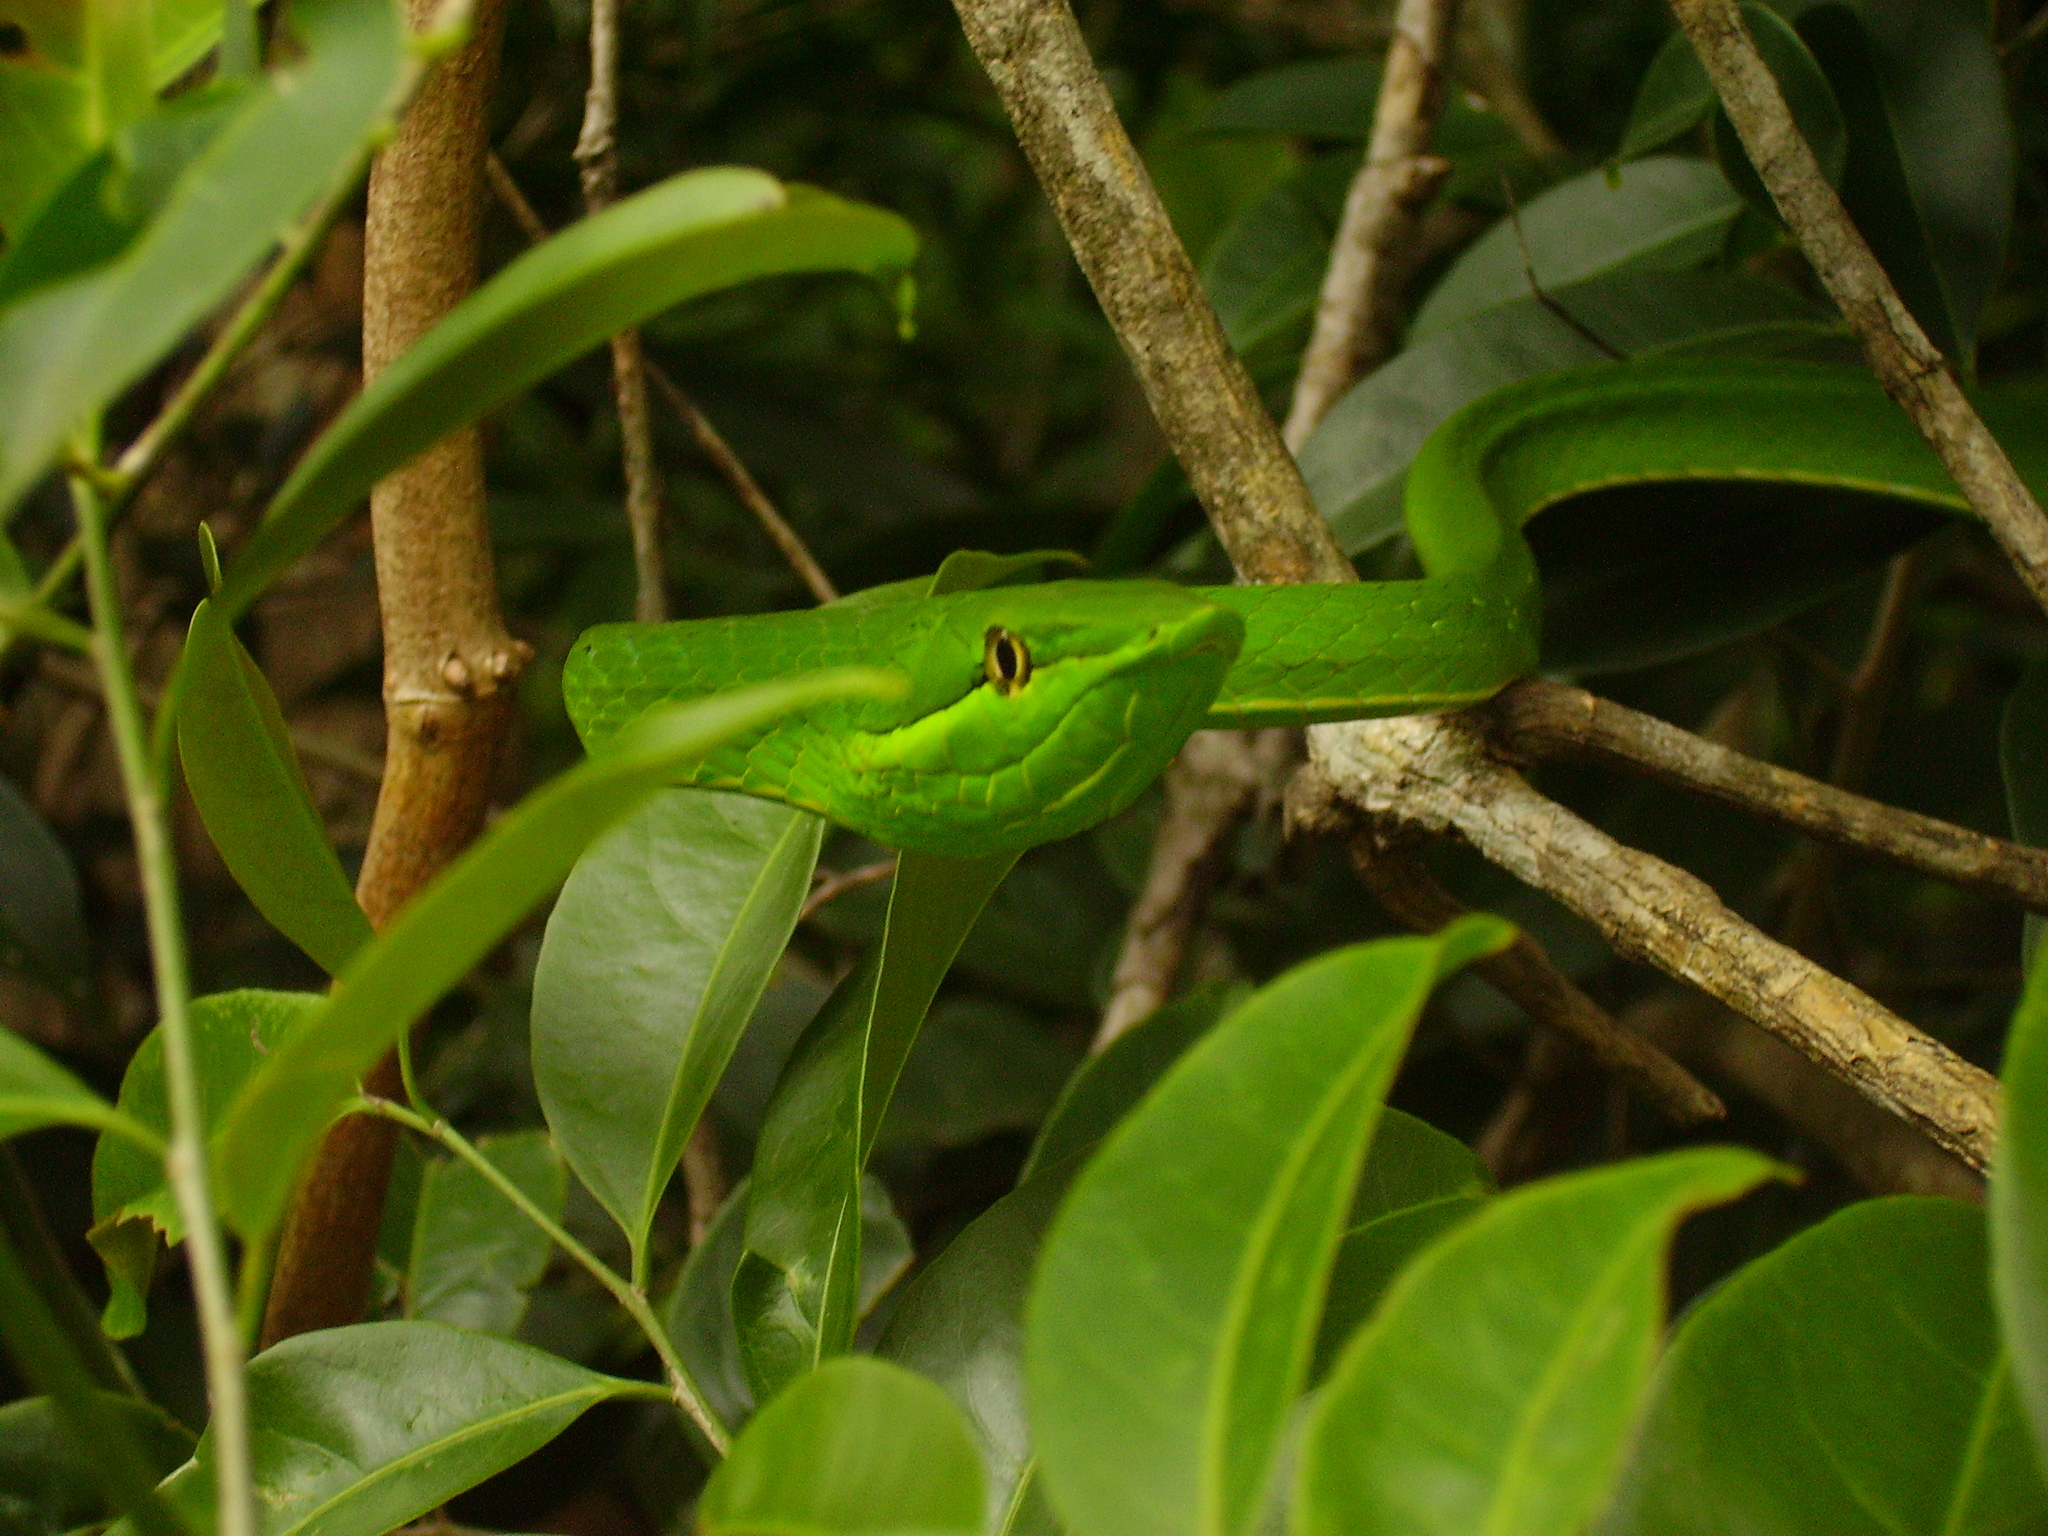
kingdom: Animalia
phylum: Chordata
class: Squamata
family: Colubridae
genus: Oxybelis
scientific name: Oxybelis fulgidus
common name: Green vine snake
